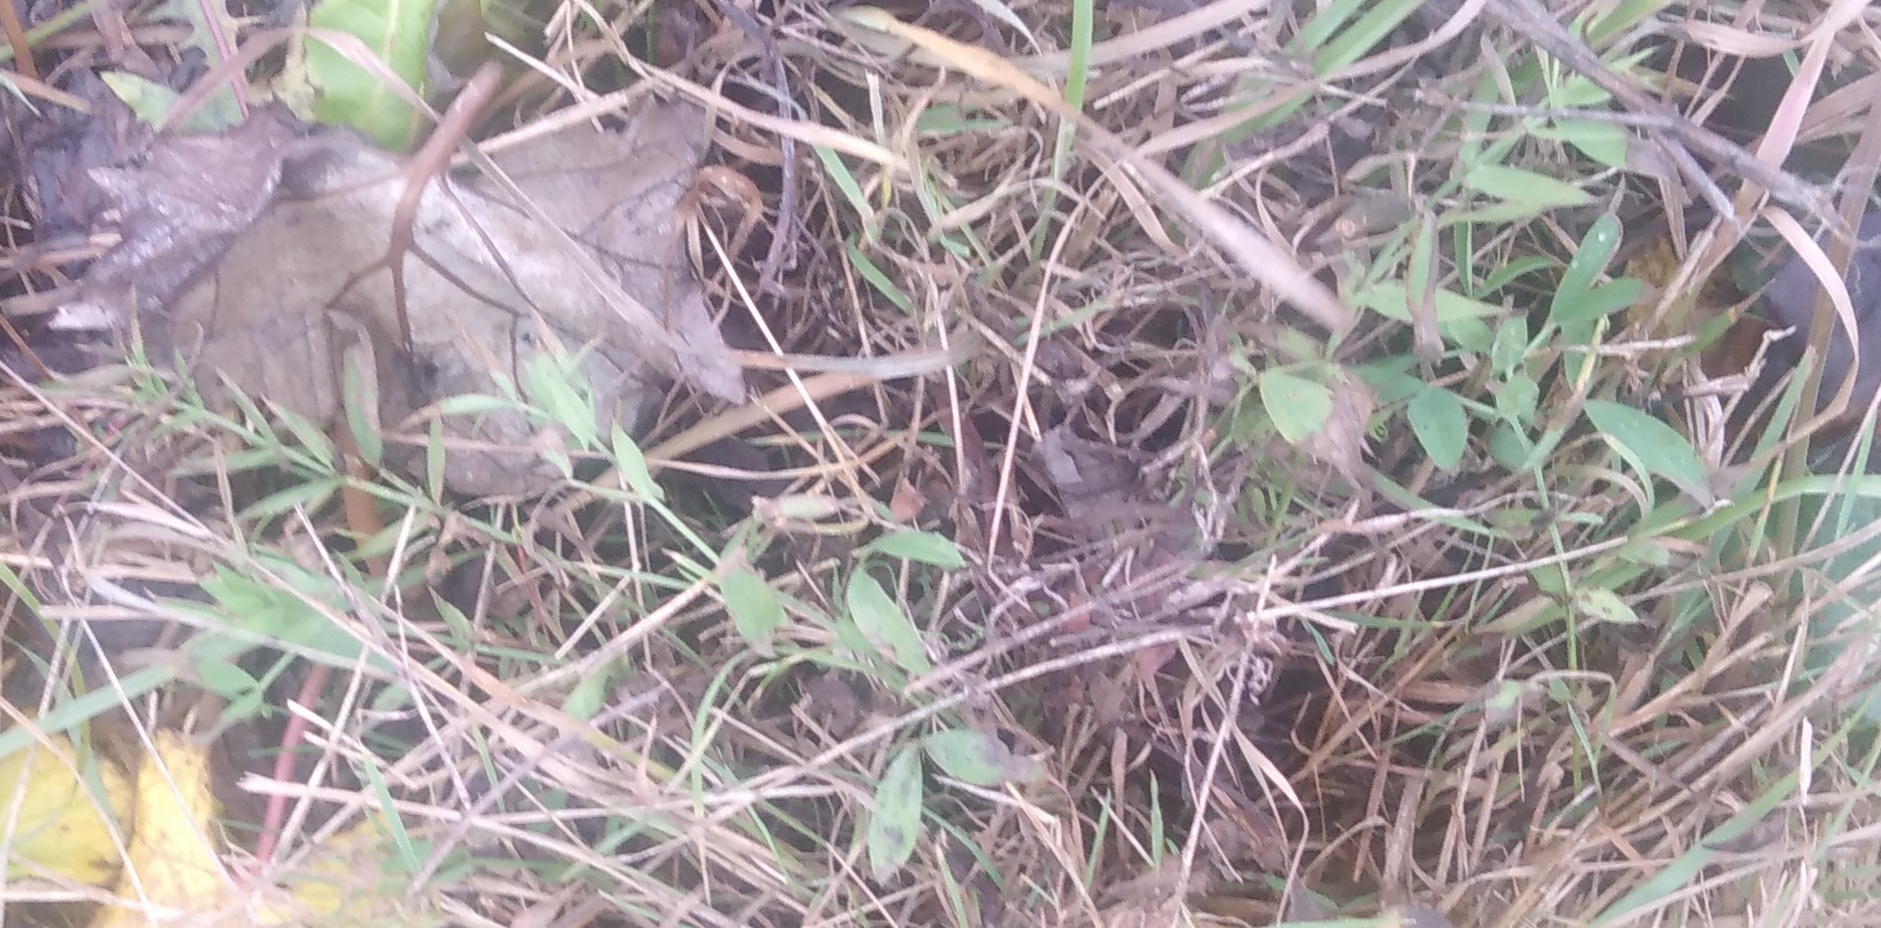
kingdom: Plantae
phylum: Tracheophyta
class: Magnoliopsida
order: Fabales
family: Fabaceae
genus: Lathyrus
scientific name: Lathyrus pratensis
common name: Meadow vetchling
